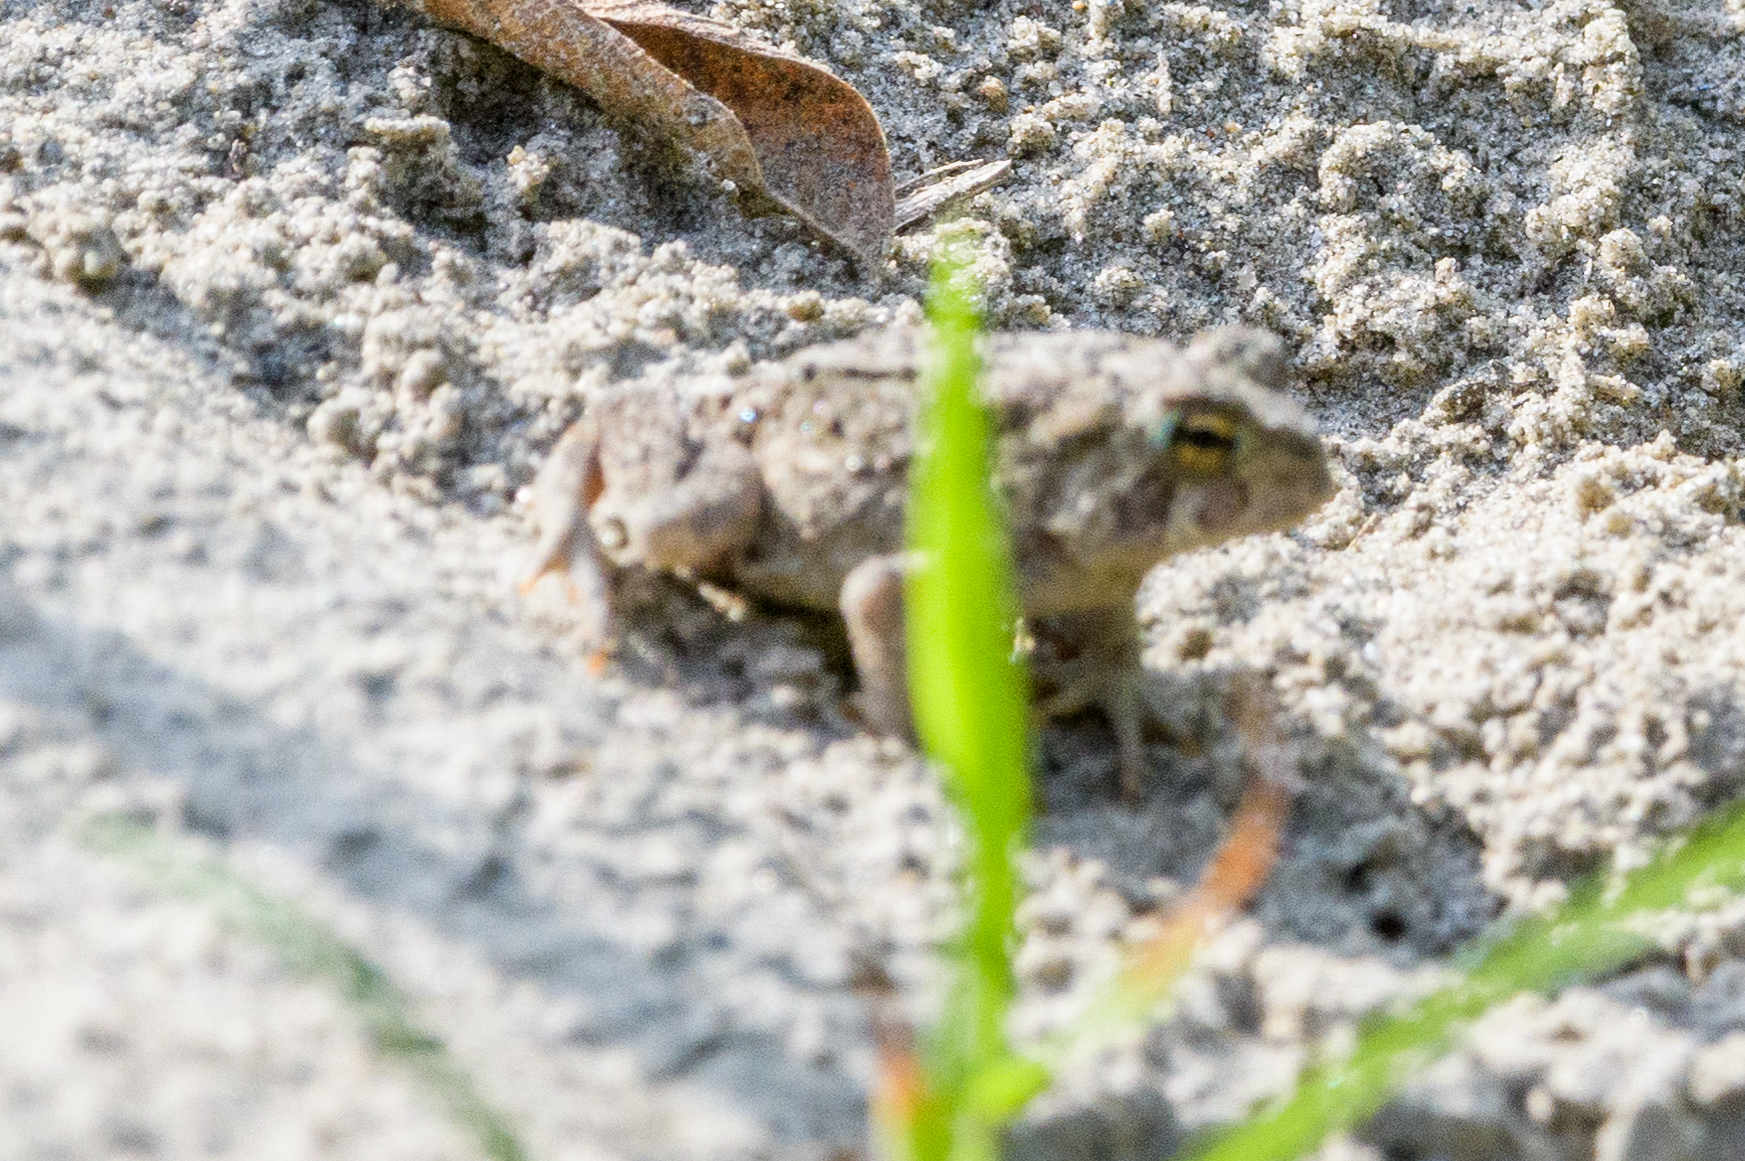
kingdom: Animalia
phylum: Chordata
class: Amphibia
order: Anura
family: Bufonidae
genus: Anaxyrus
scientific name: Anaxyrus americanus
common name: American toad
